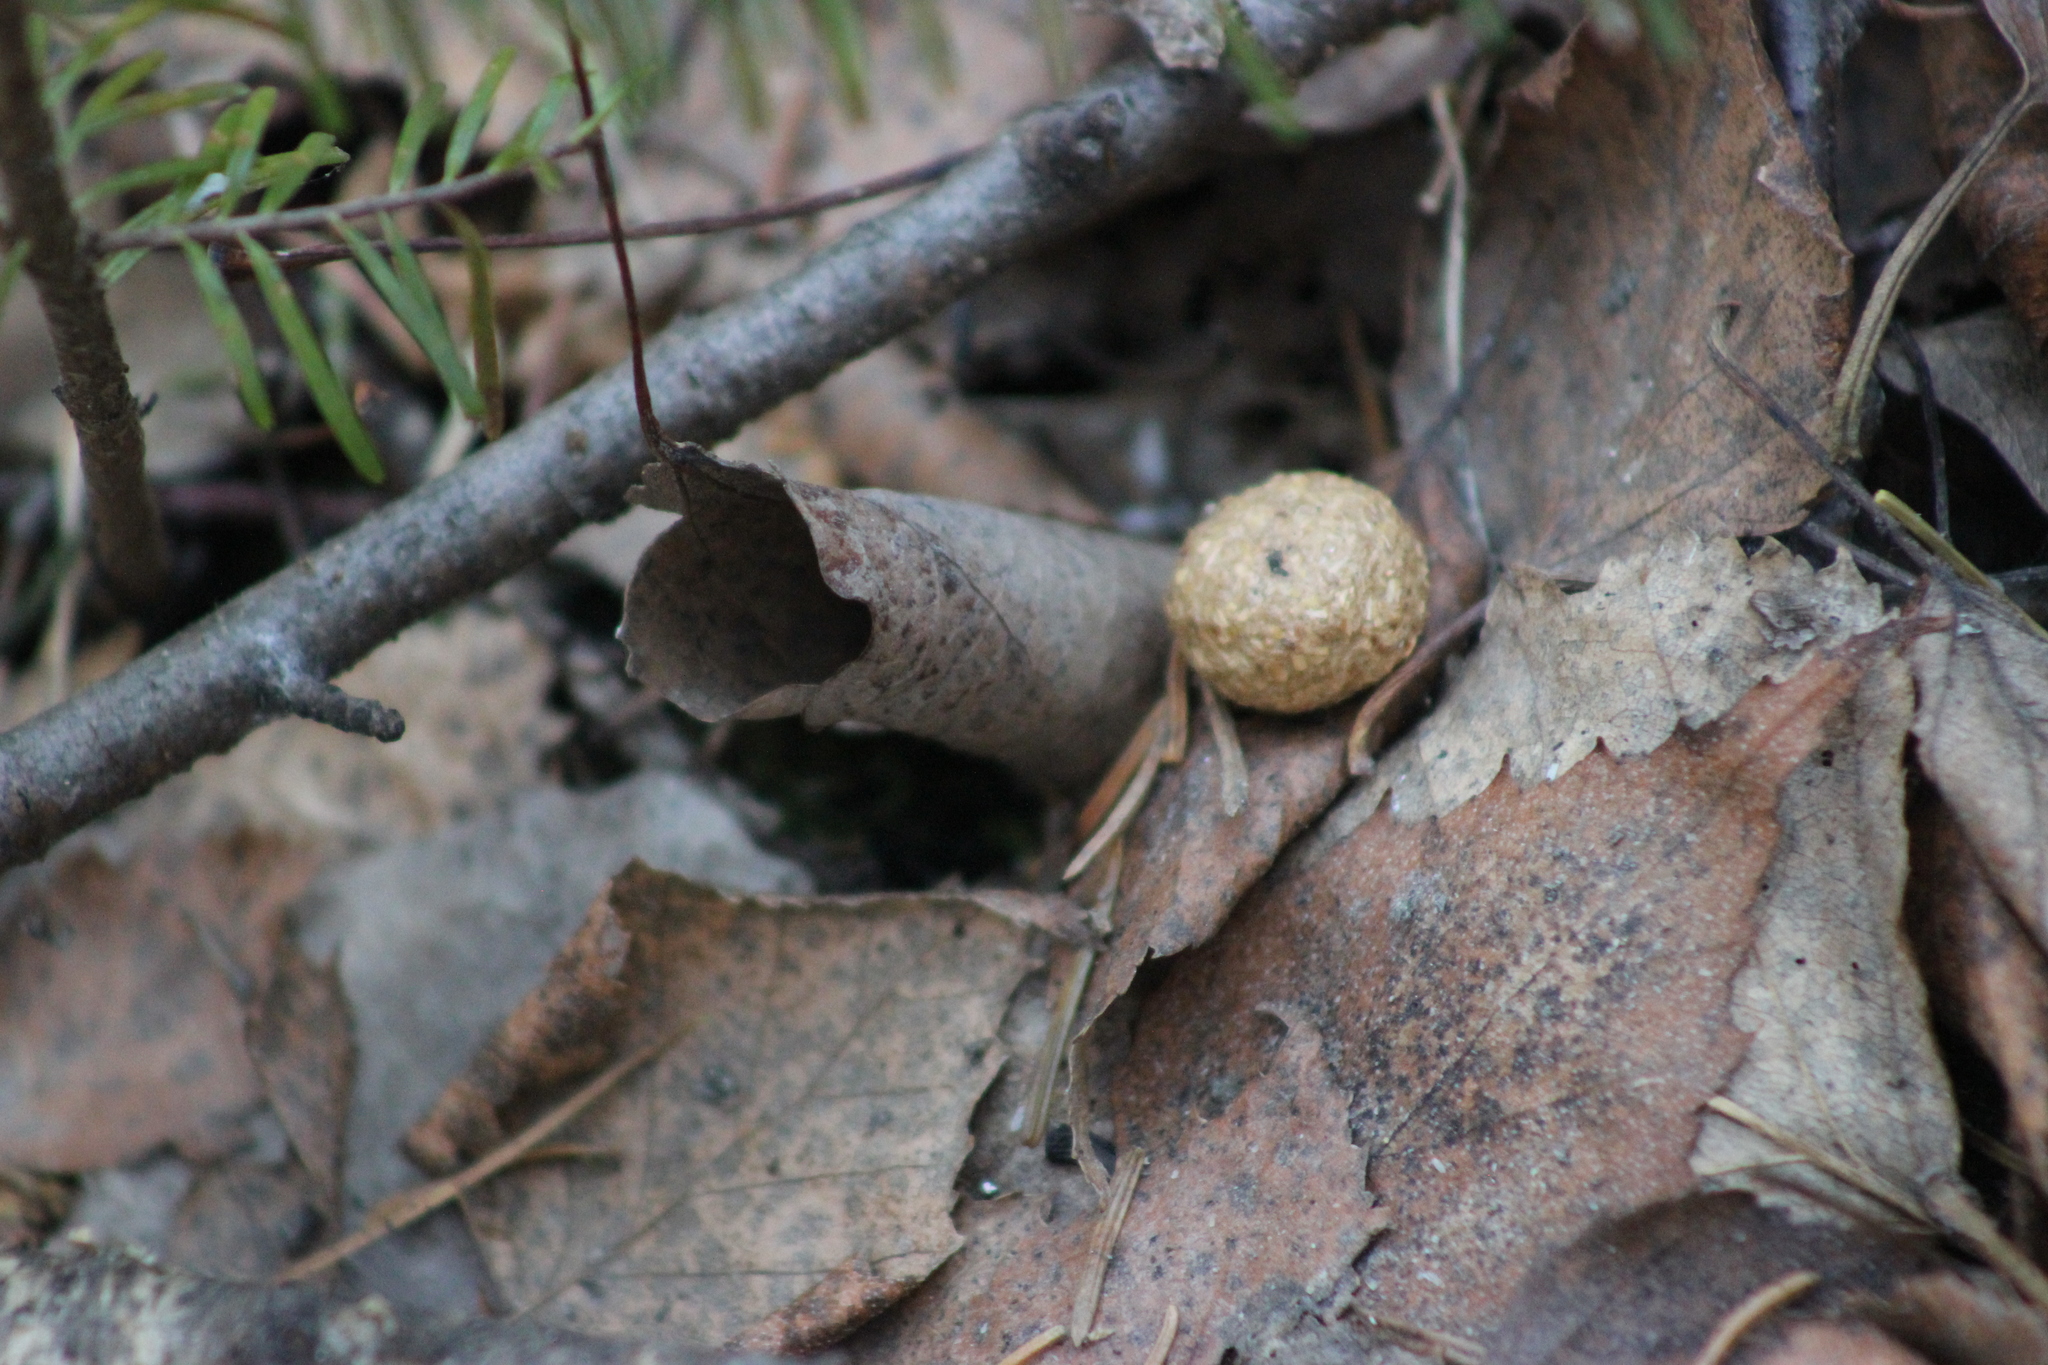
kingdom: Animalia
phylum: Chordata
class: Mammalia
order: Lagomorpha
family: Leporidae
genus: Lepus
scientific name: Lepus timidus
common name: Mountain hare
